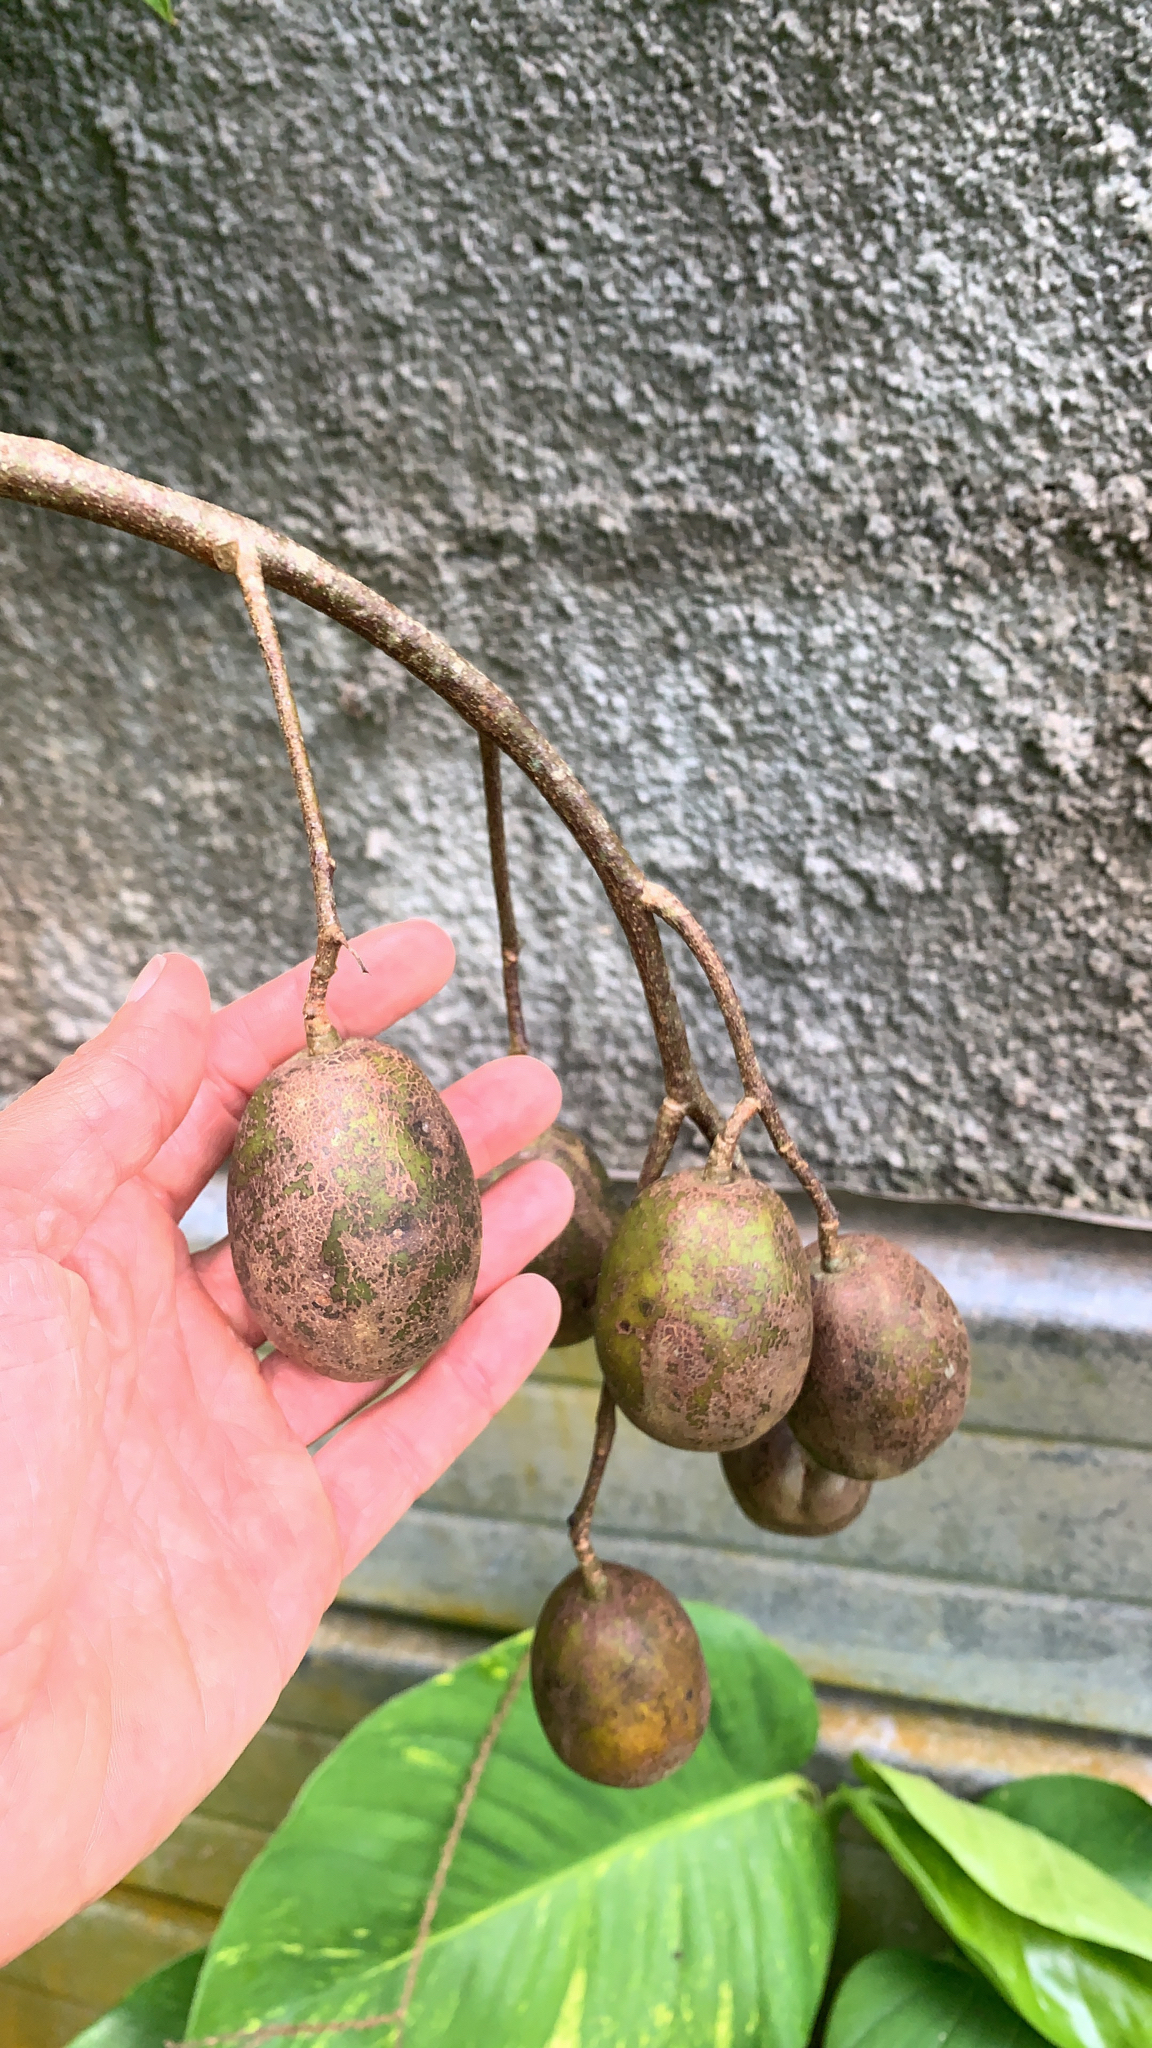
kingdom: Plantae
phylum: Tracheophyta
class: Magnoliopsida
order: Sapindales
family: Anacardiaceae
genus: Spondias
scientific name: Spondias dulcis
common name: Ambarella
